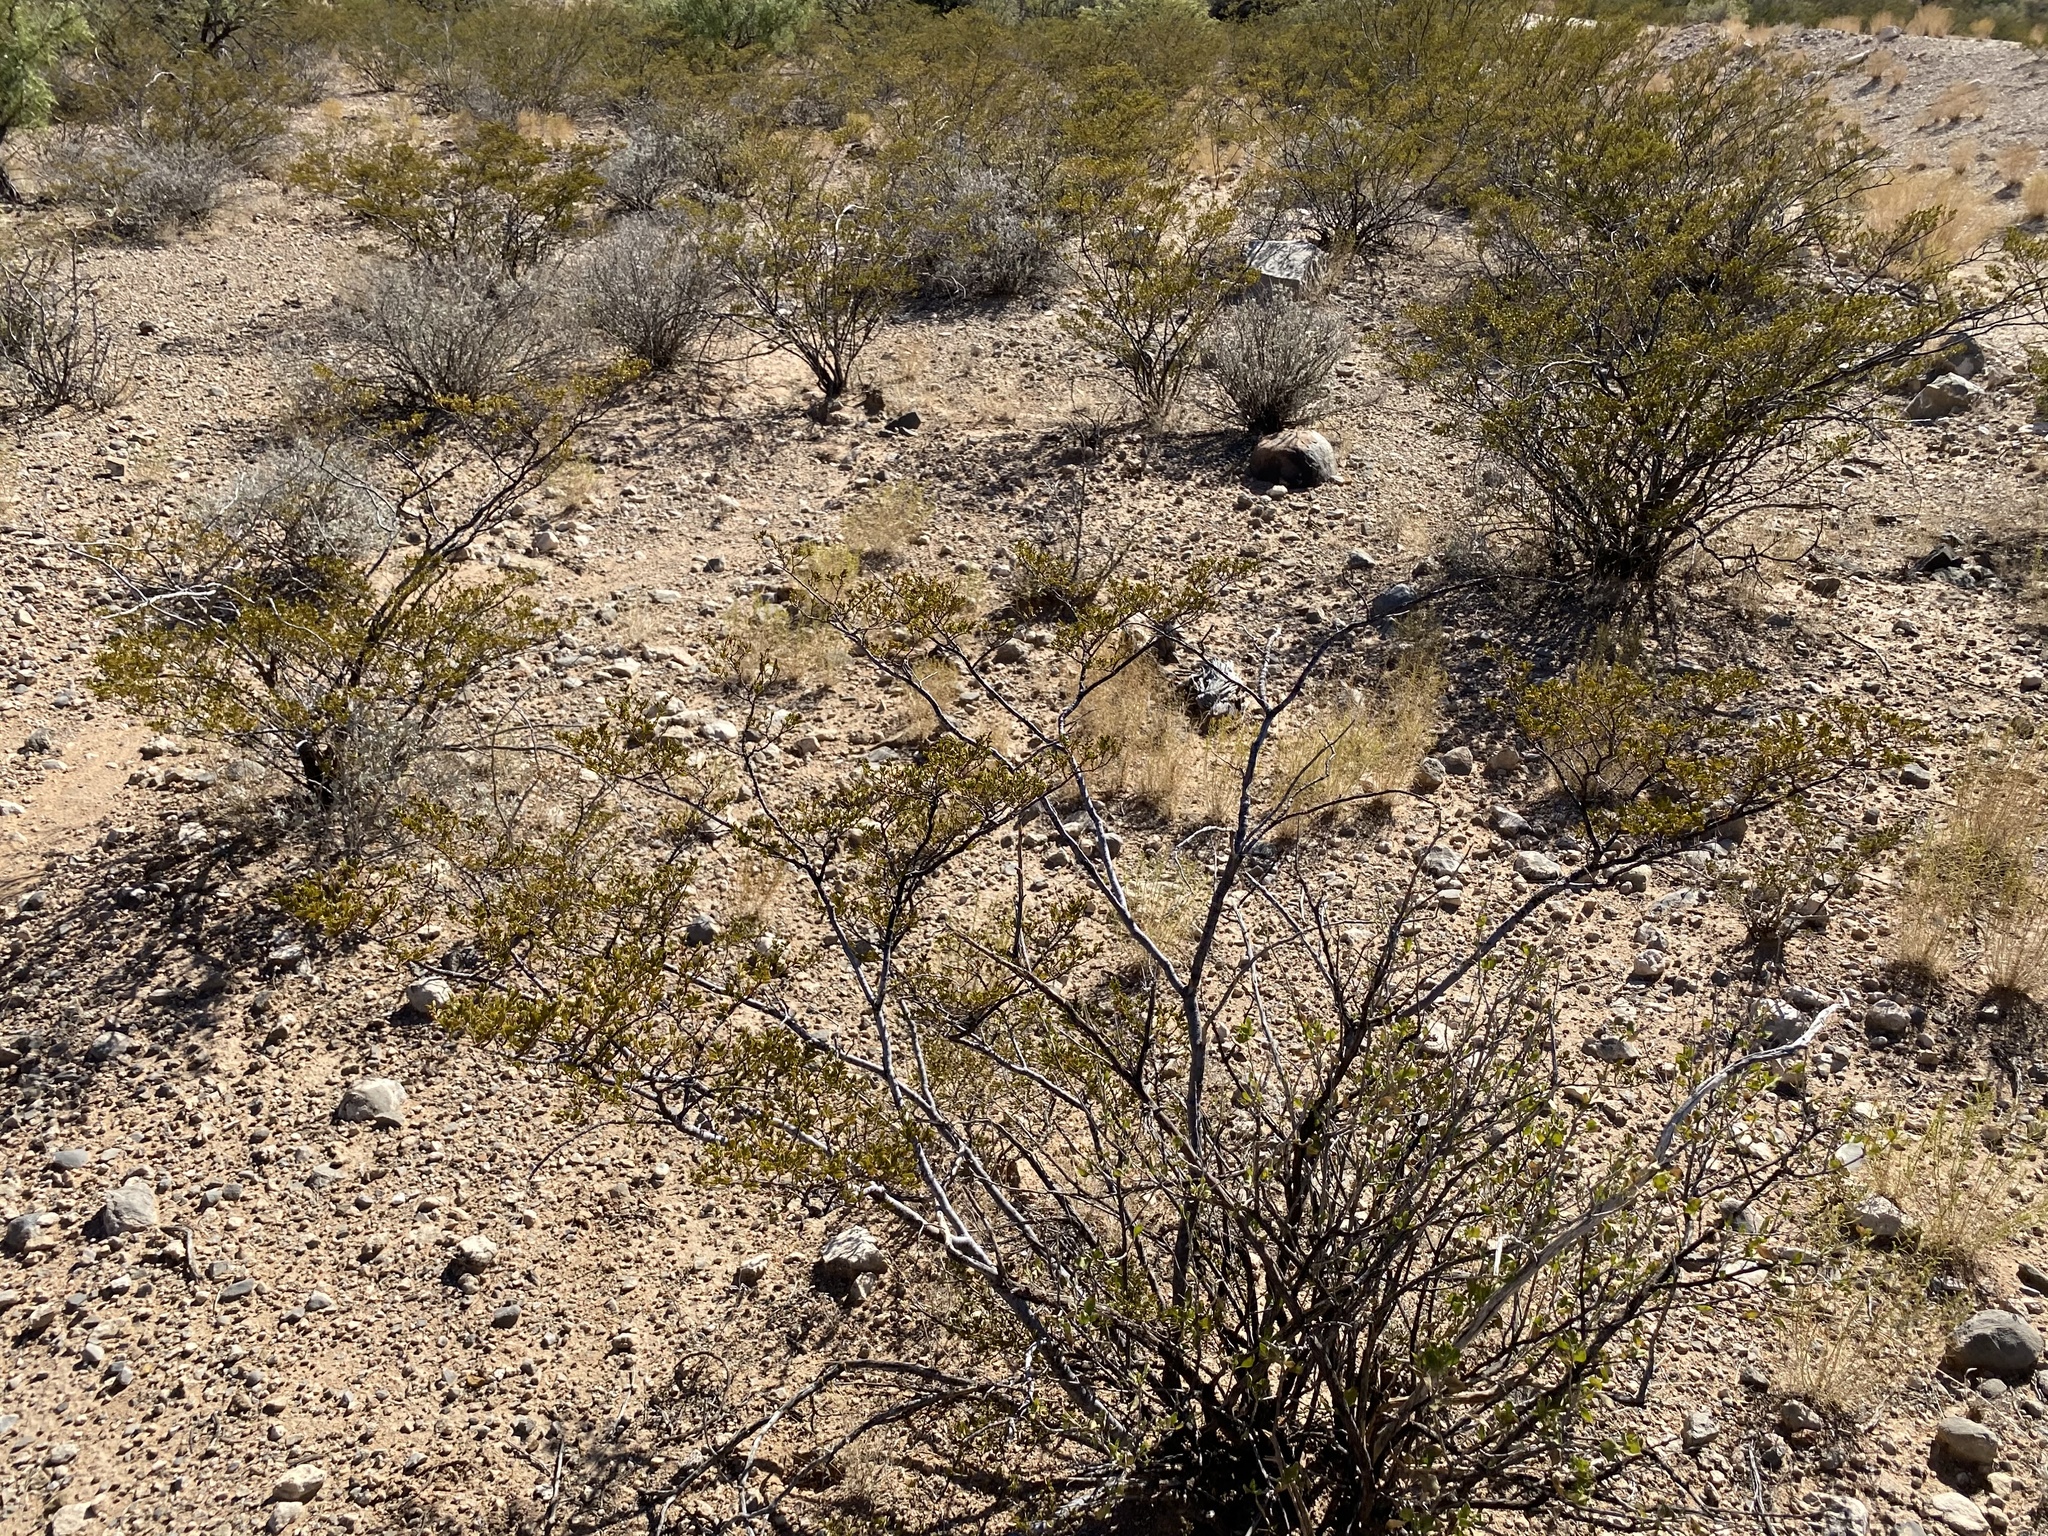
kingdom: Plantae
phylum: Tracheophyta
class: Magnoliopsida
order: Zygophyllales
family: Zygophyllaceae
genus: Larrea
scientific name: Larrea tridentata
